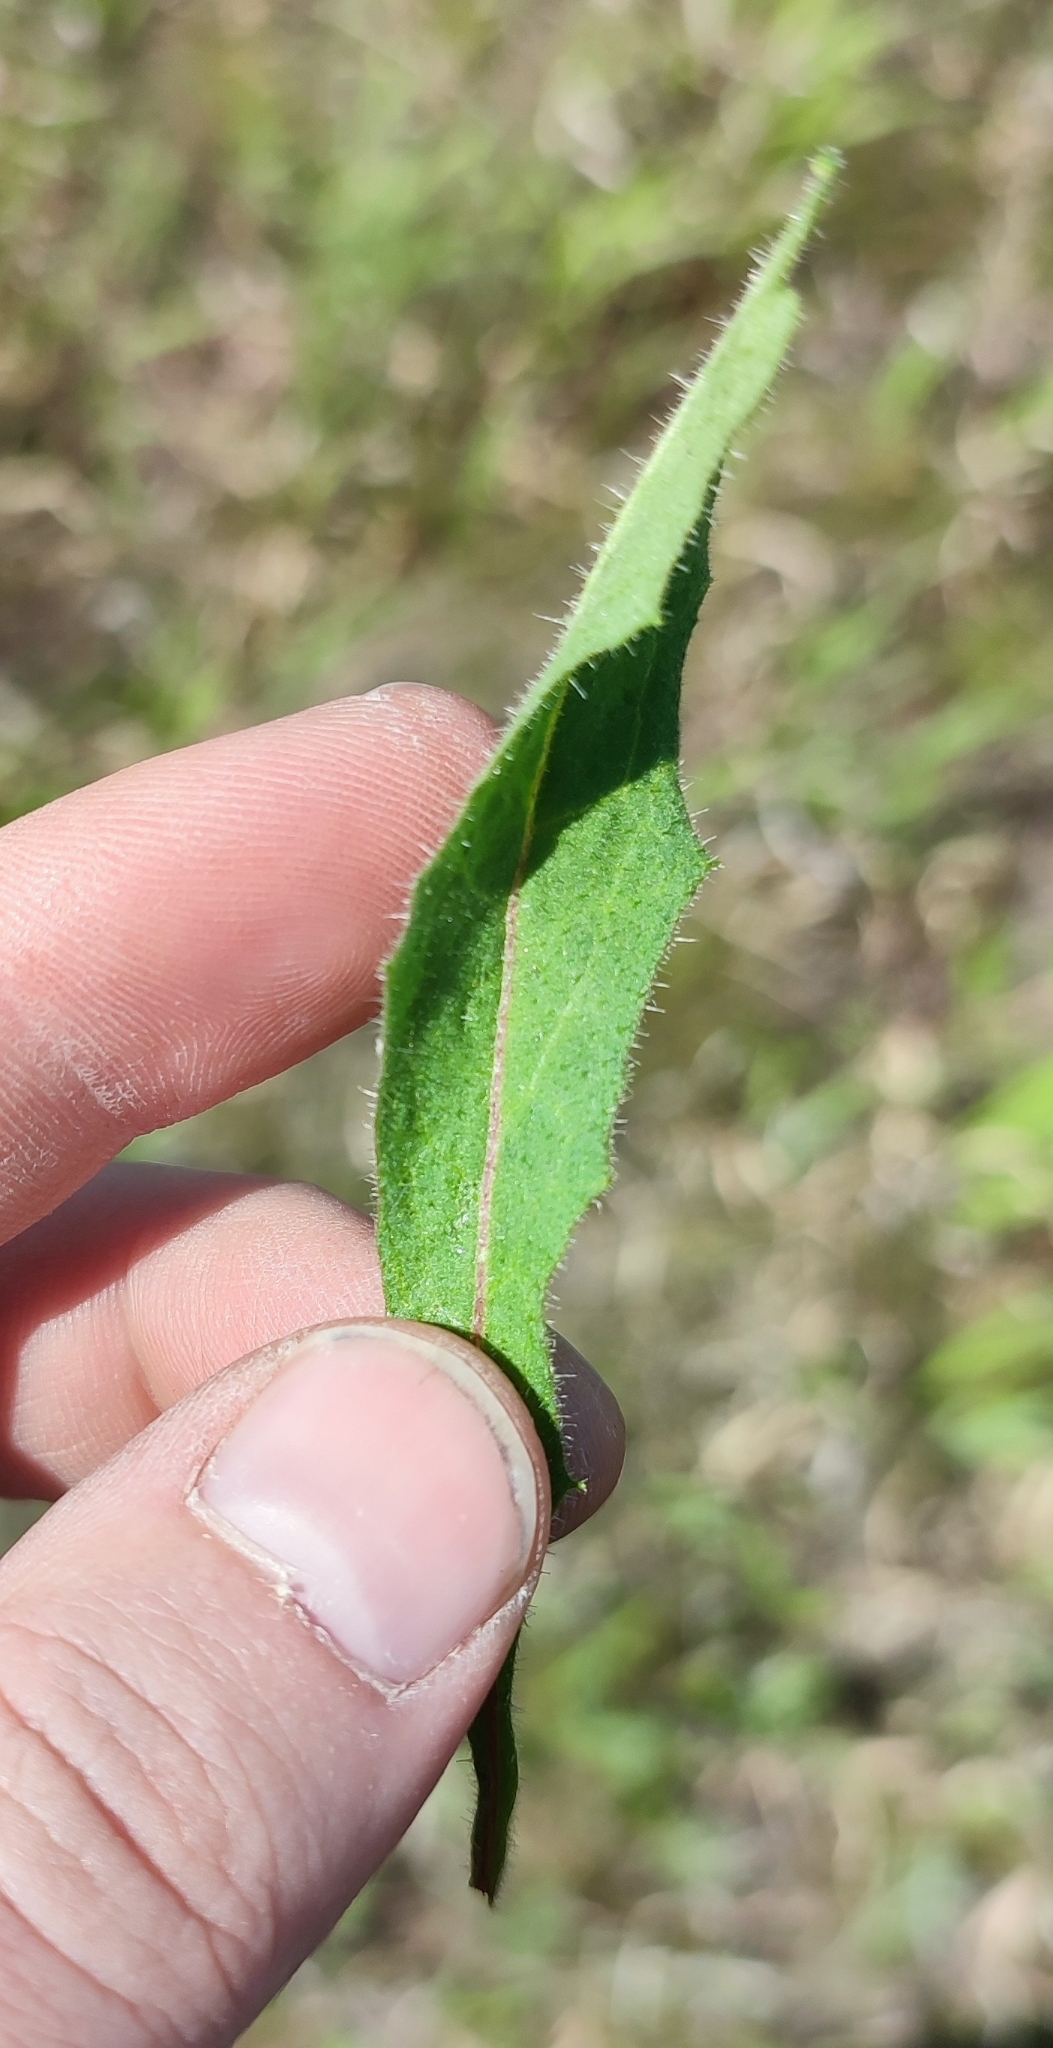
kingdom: Plantae
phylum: Tracheophyta
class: Magnoliopsida
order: Asterales
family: Asteraceae
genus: Hieracium
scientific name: Hieracium robustum
